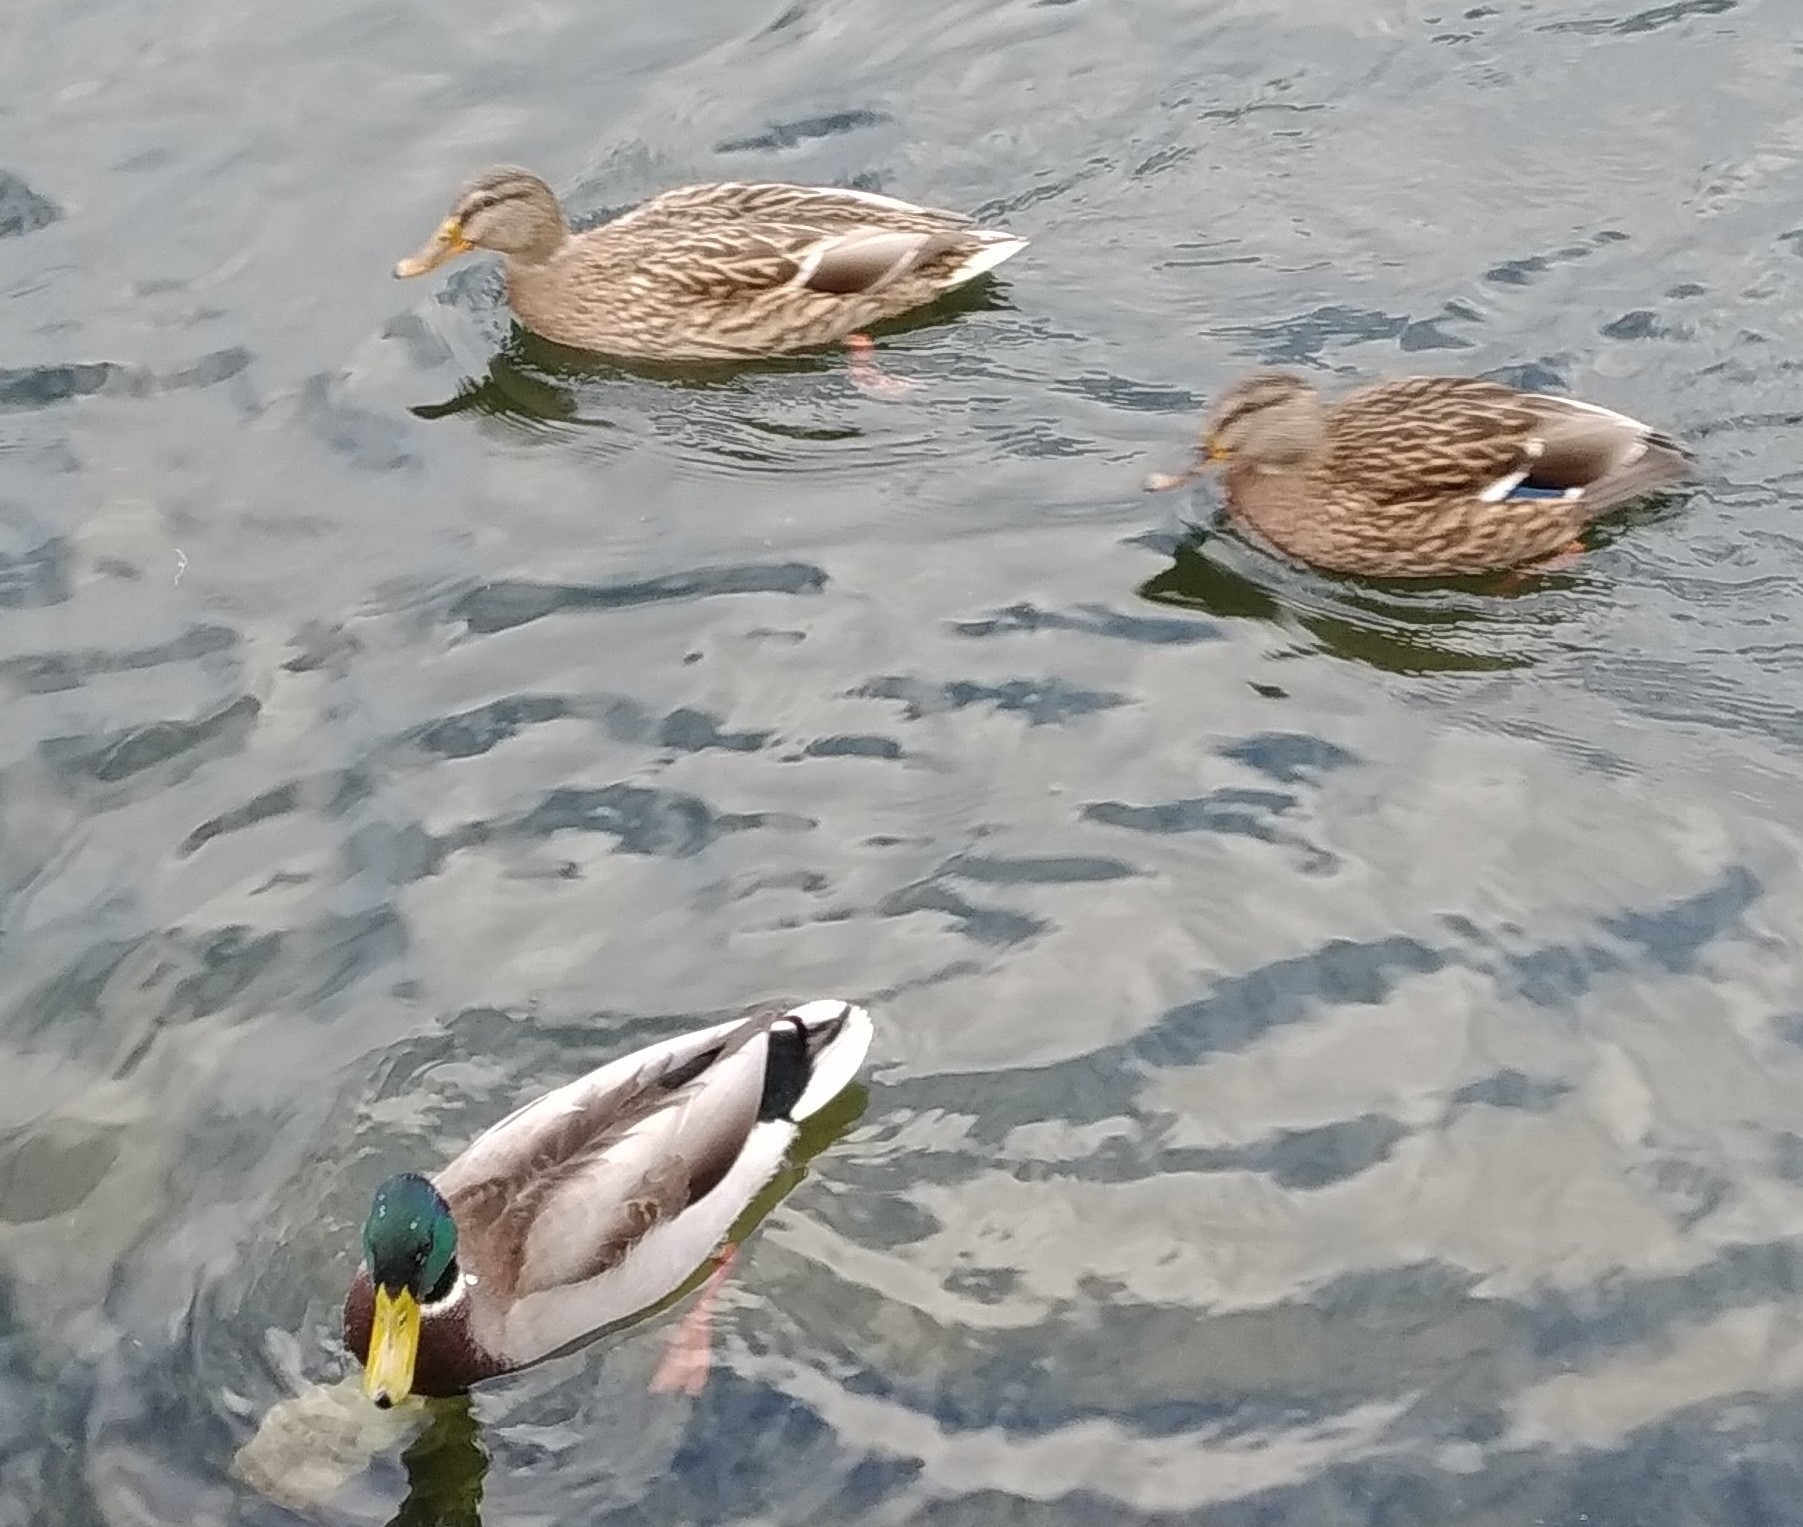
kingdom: Animalia
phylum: Chordata
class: Aves
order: Anseriformes
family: Anatidae
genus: Anas
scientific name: Anas platyrhynchos
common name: Mallard
